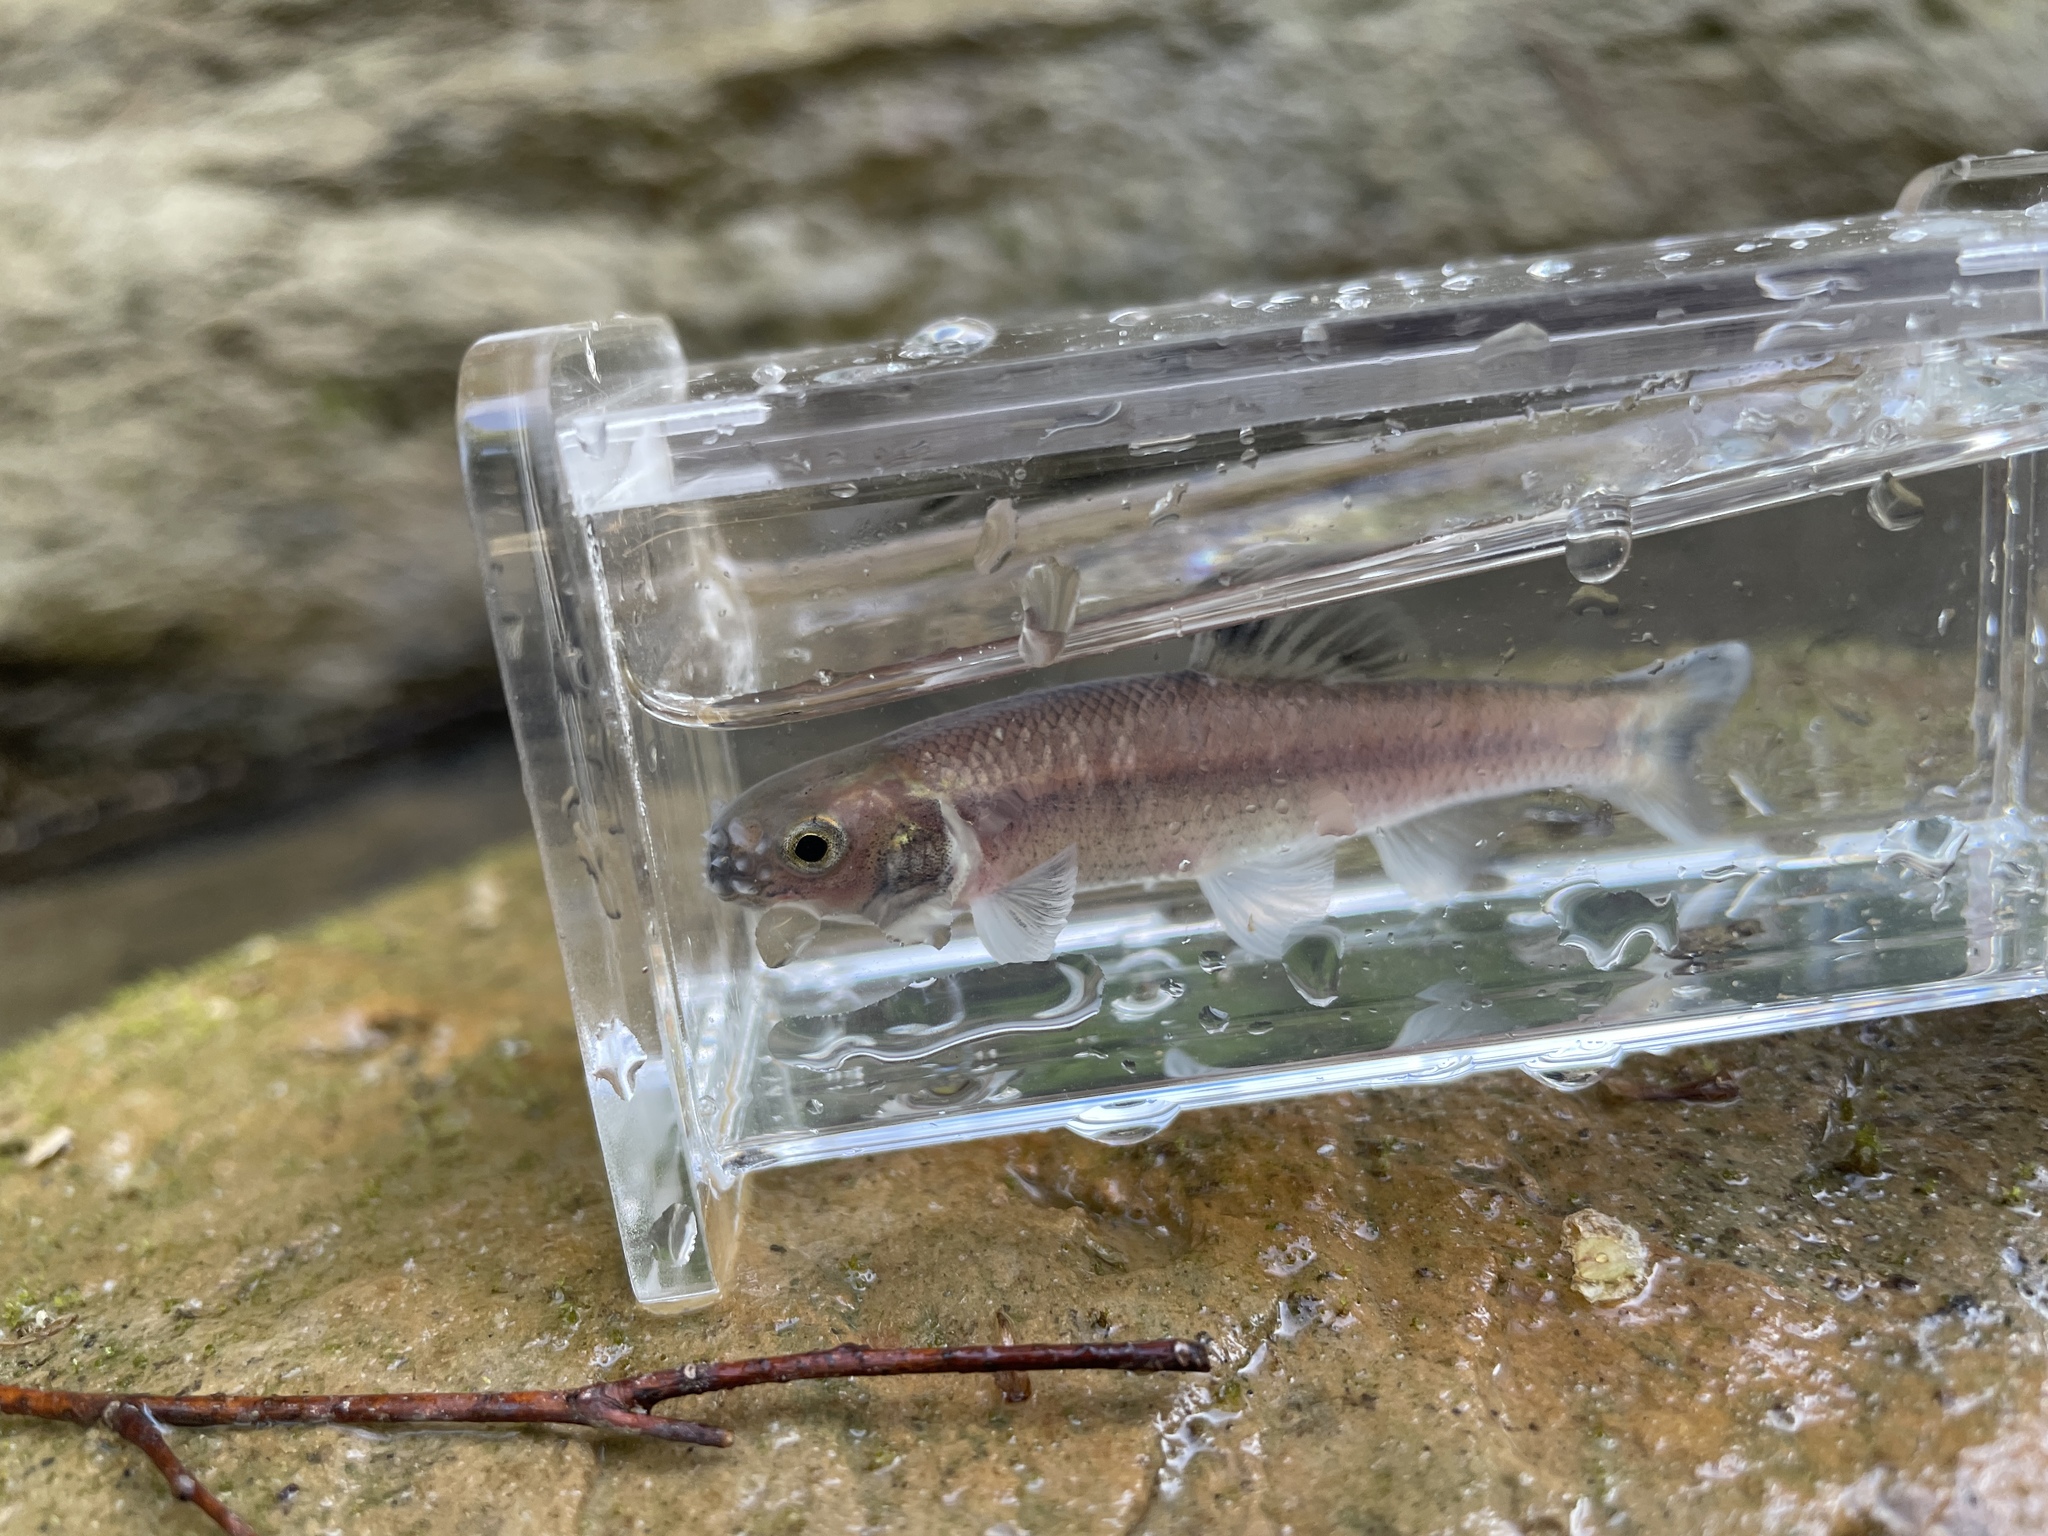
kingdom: Animalia
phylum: Chordata
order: Cypriniformes
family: Cyprinidae
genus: Pimephales
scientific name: Pimephales notatus
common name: Bluntnose minnow
